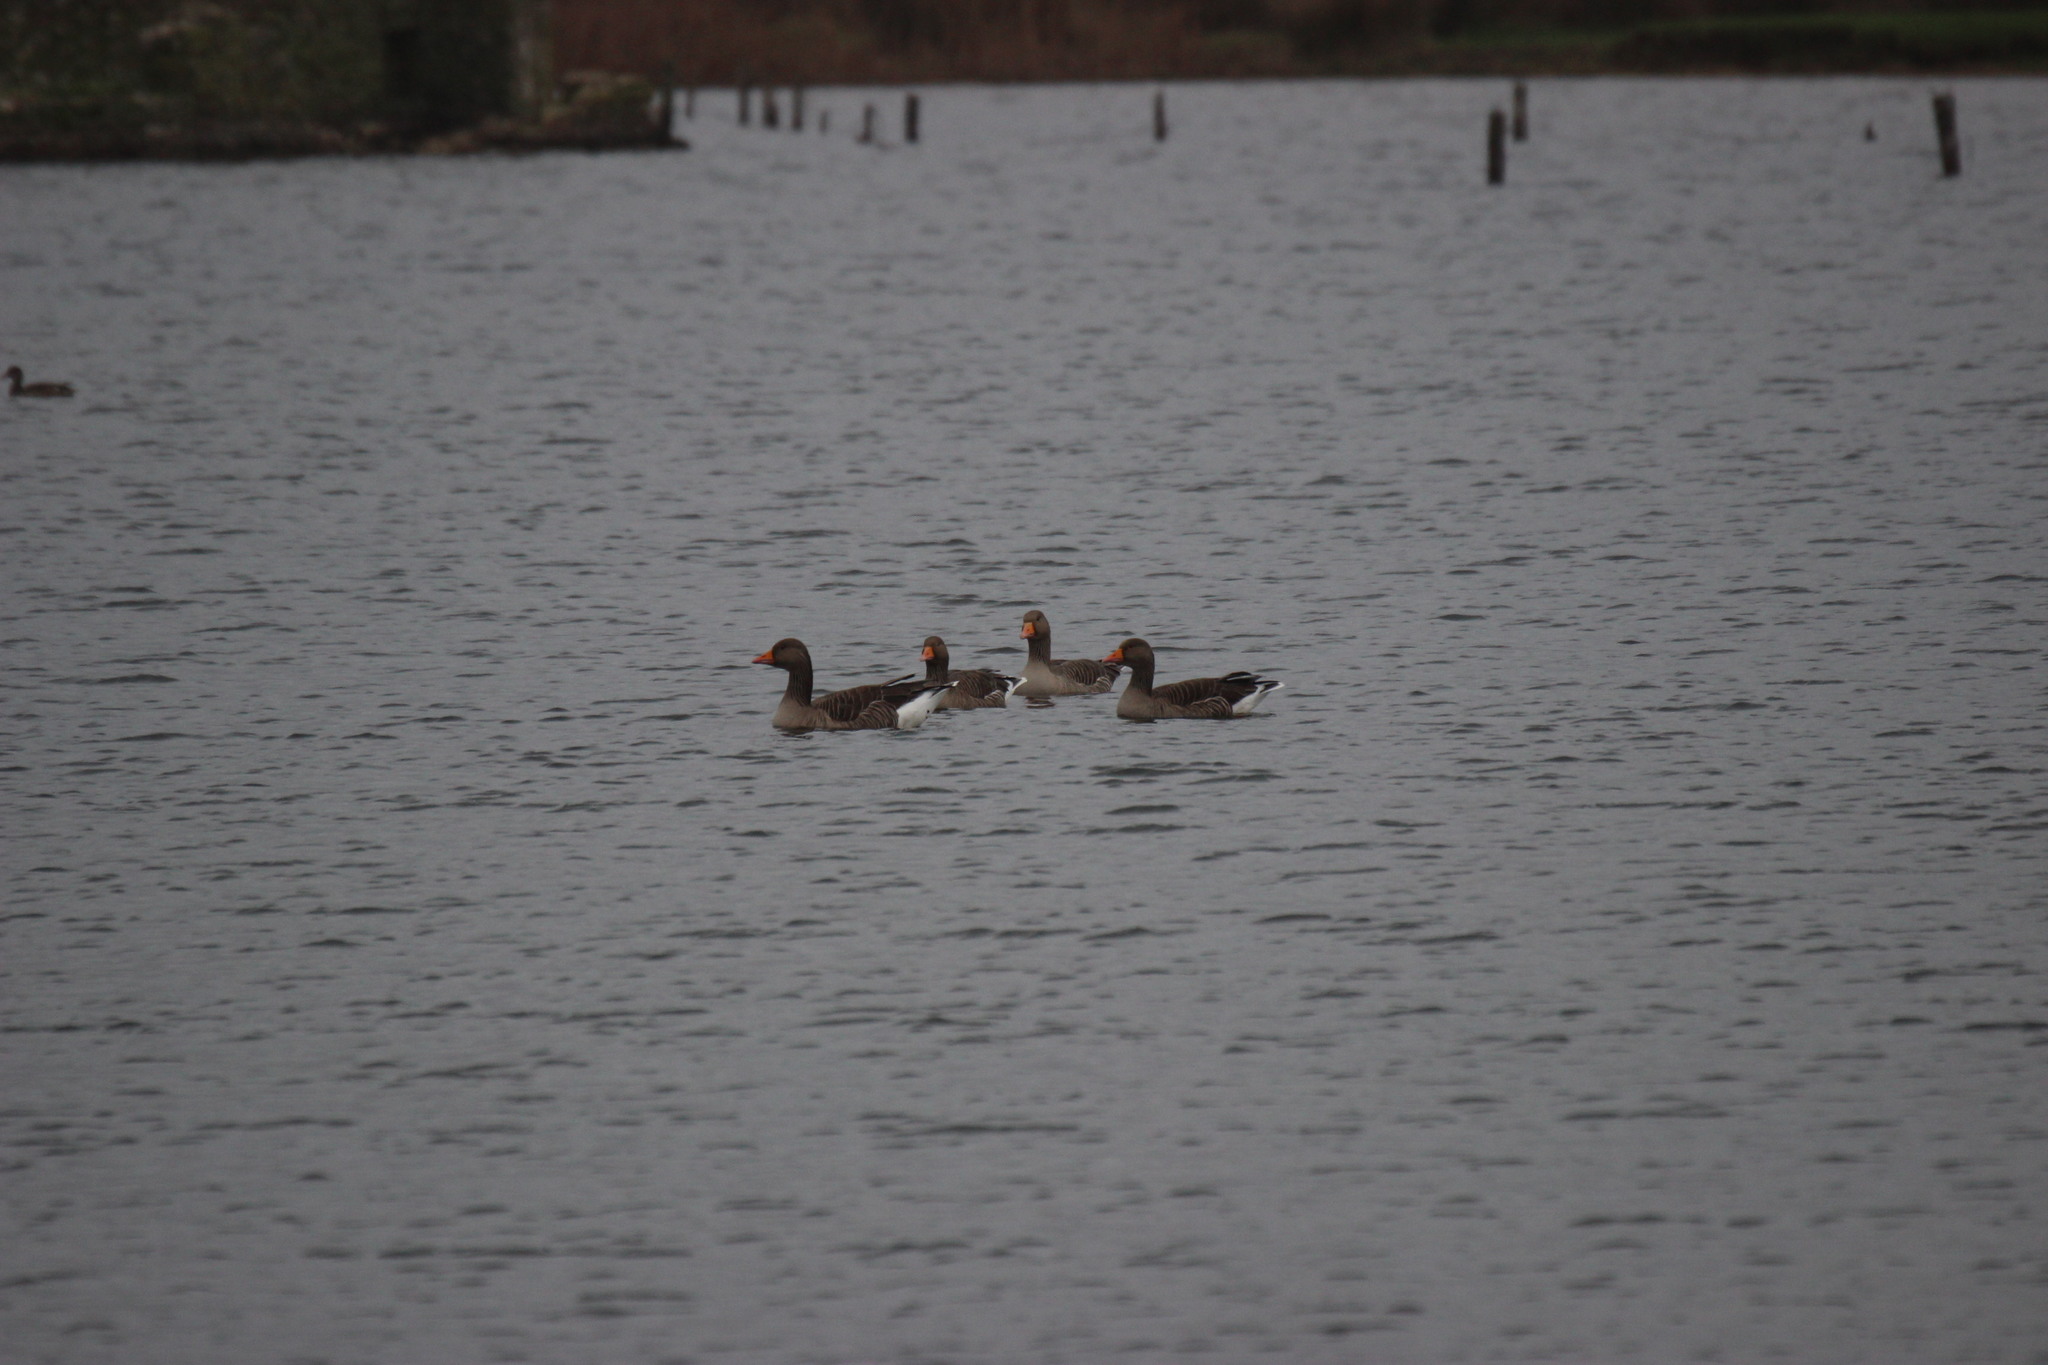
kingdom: Animalia
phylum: Chordata
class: Aves
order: Anseriformes
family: Anatidae
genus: Anser
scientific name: Anser anser
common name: Greylag goose
